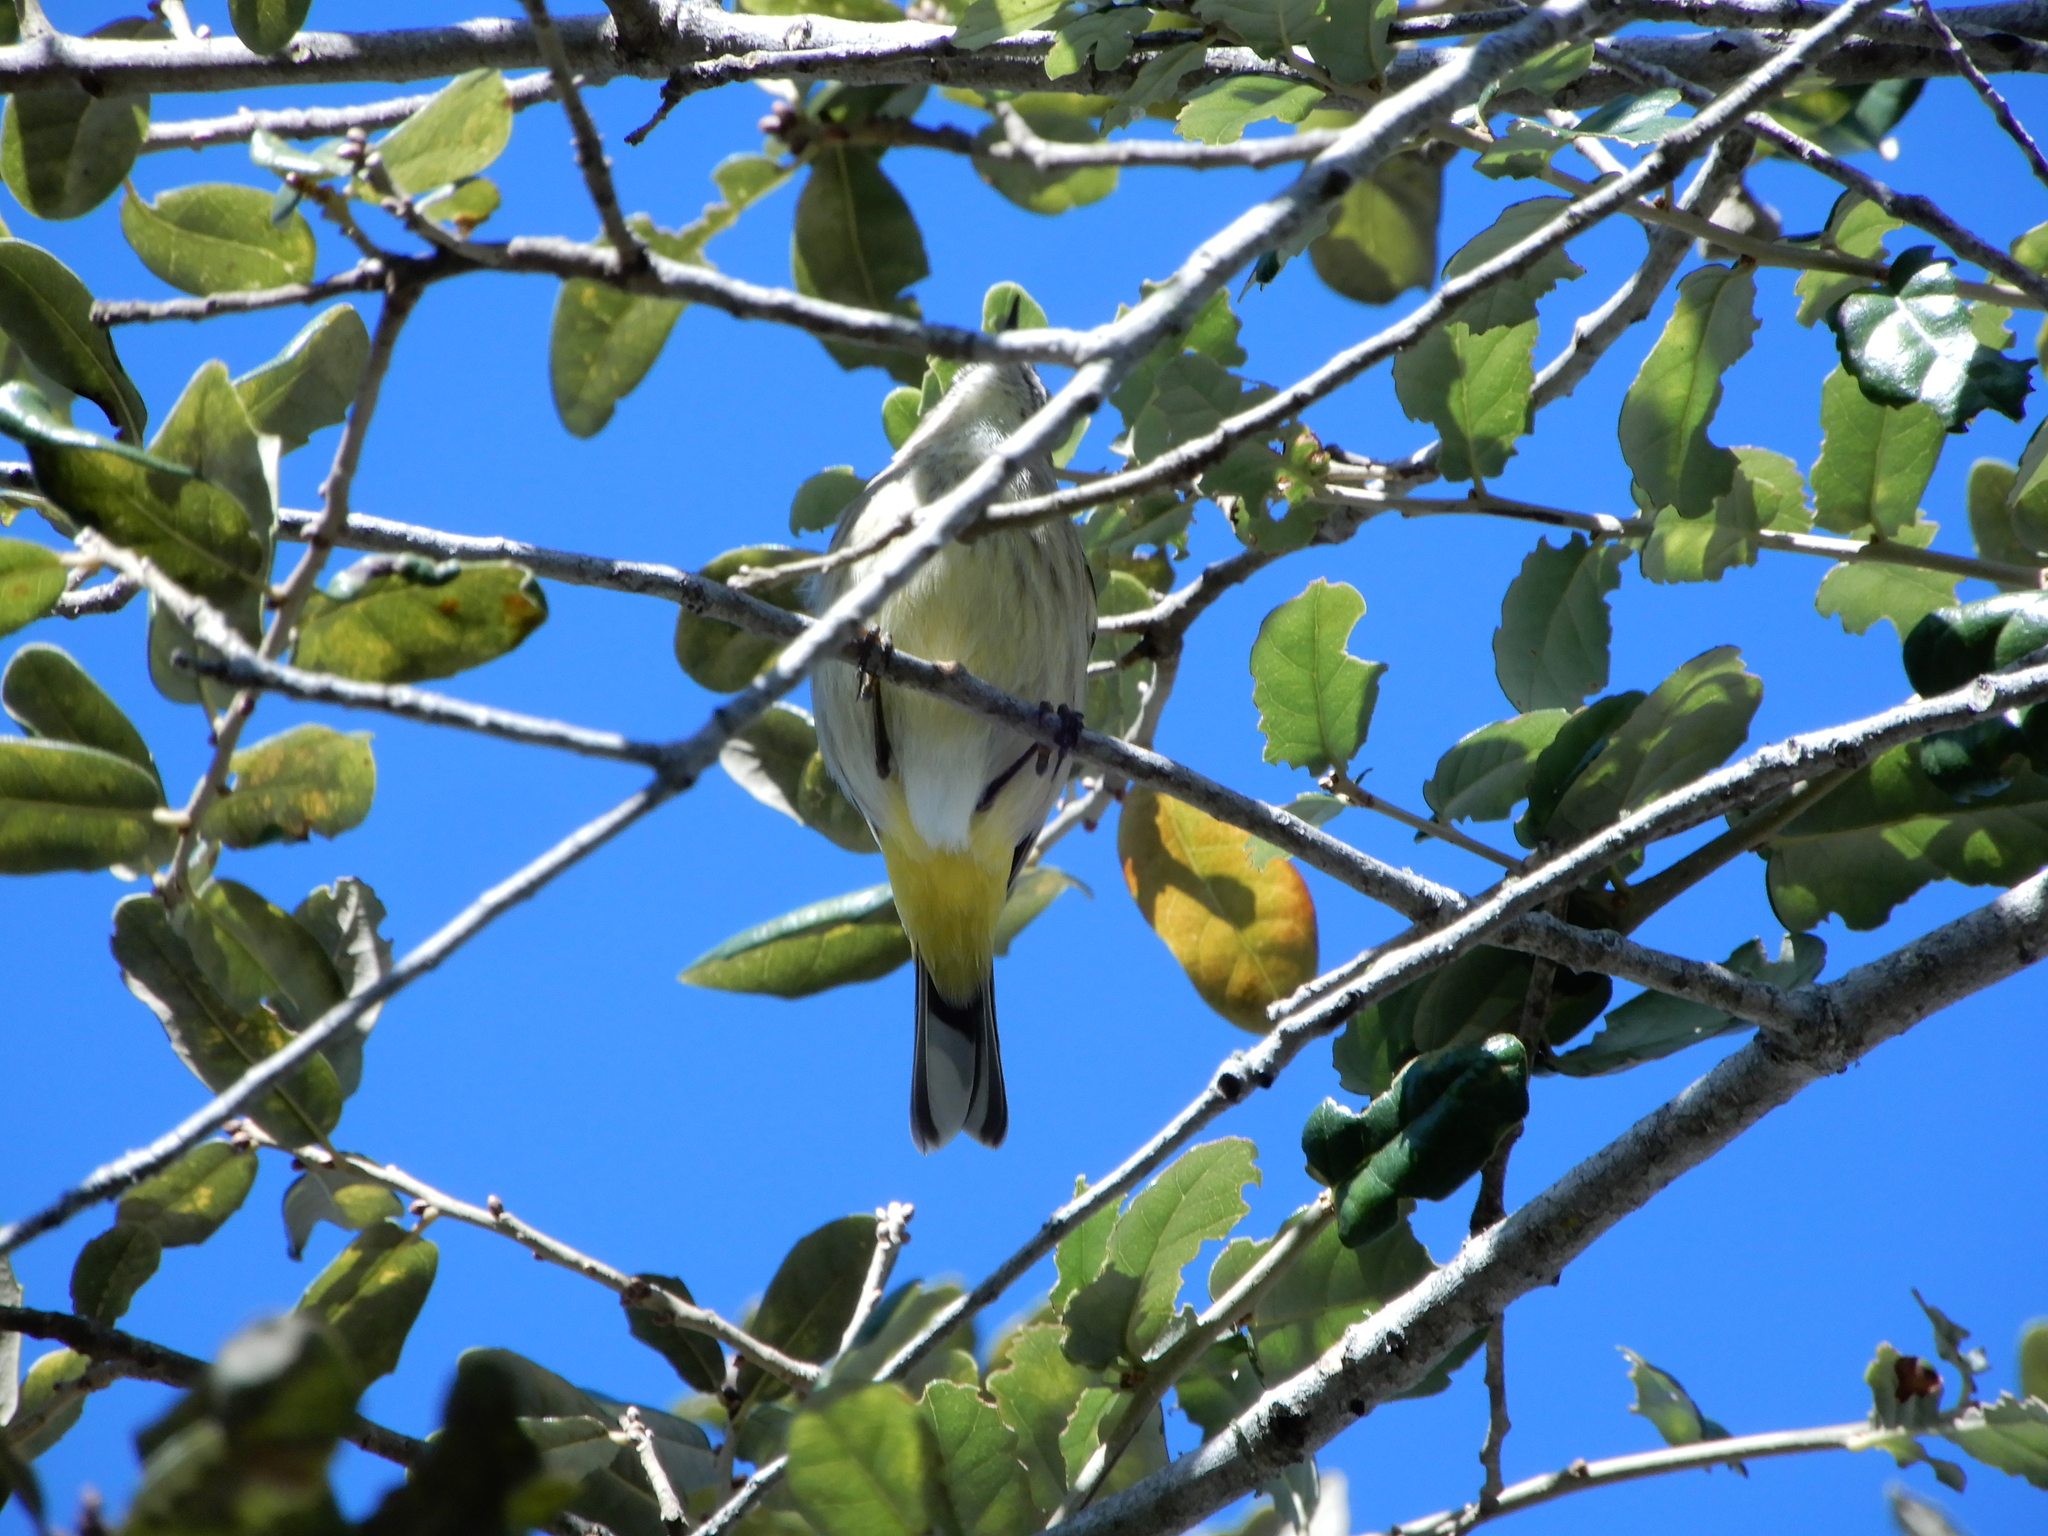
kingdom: Animalia
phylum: Chordata
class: Aves
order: Passeriformes
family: Parulidae
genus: Setophaga
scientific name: Setophaga palmarum
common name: Palm warbler
